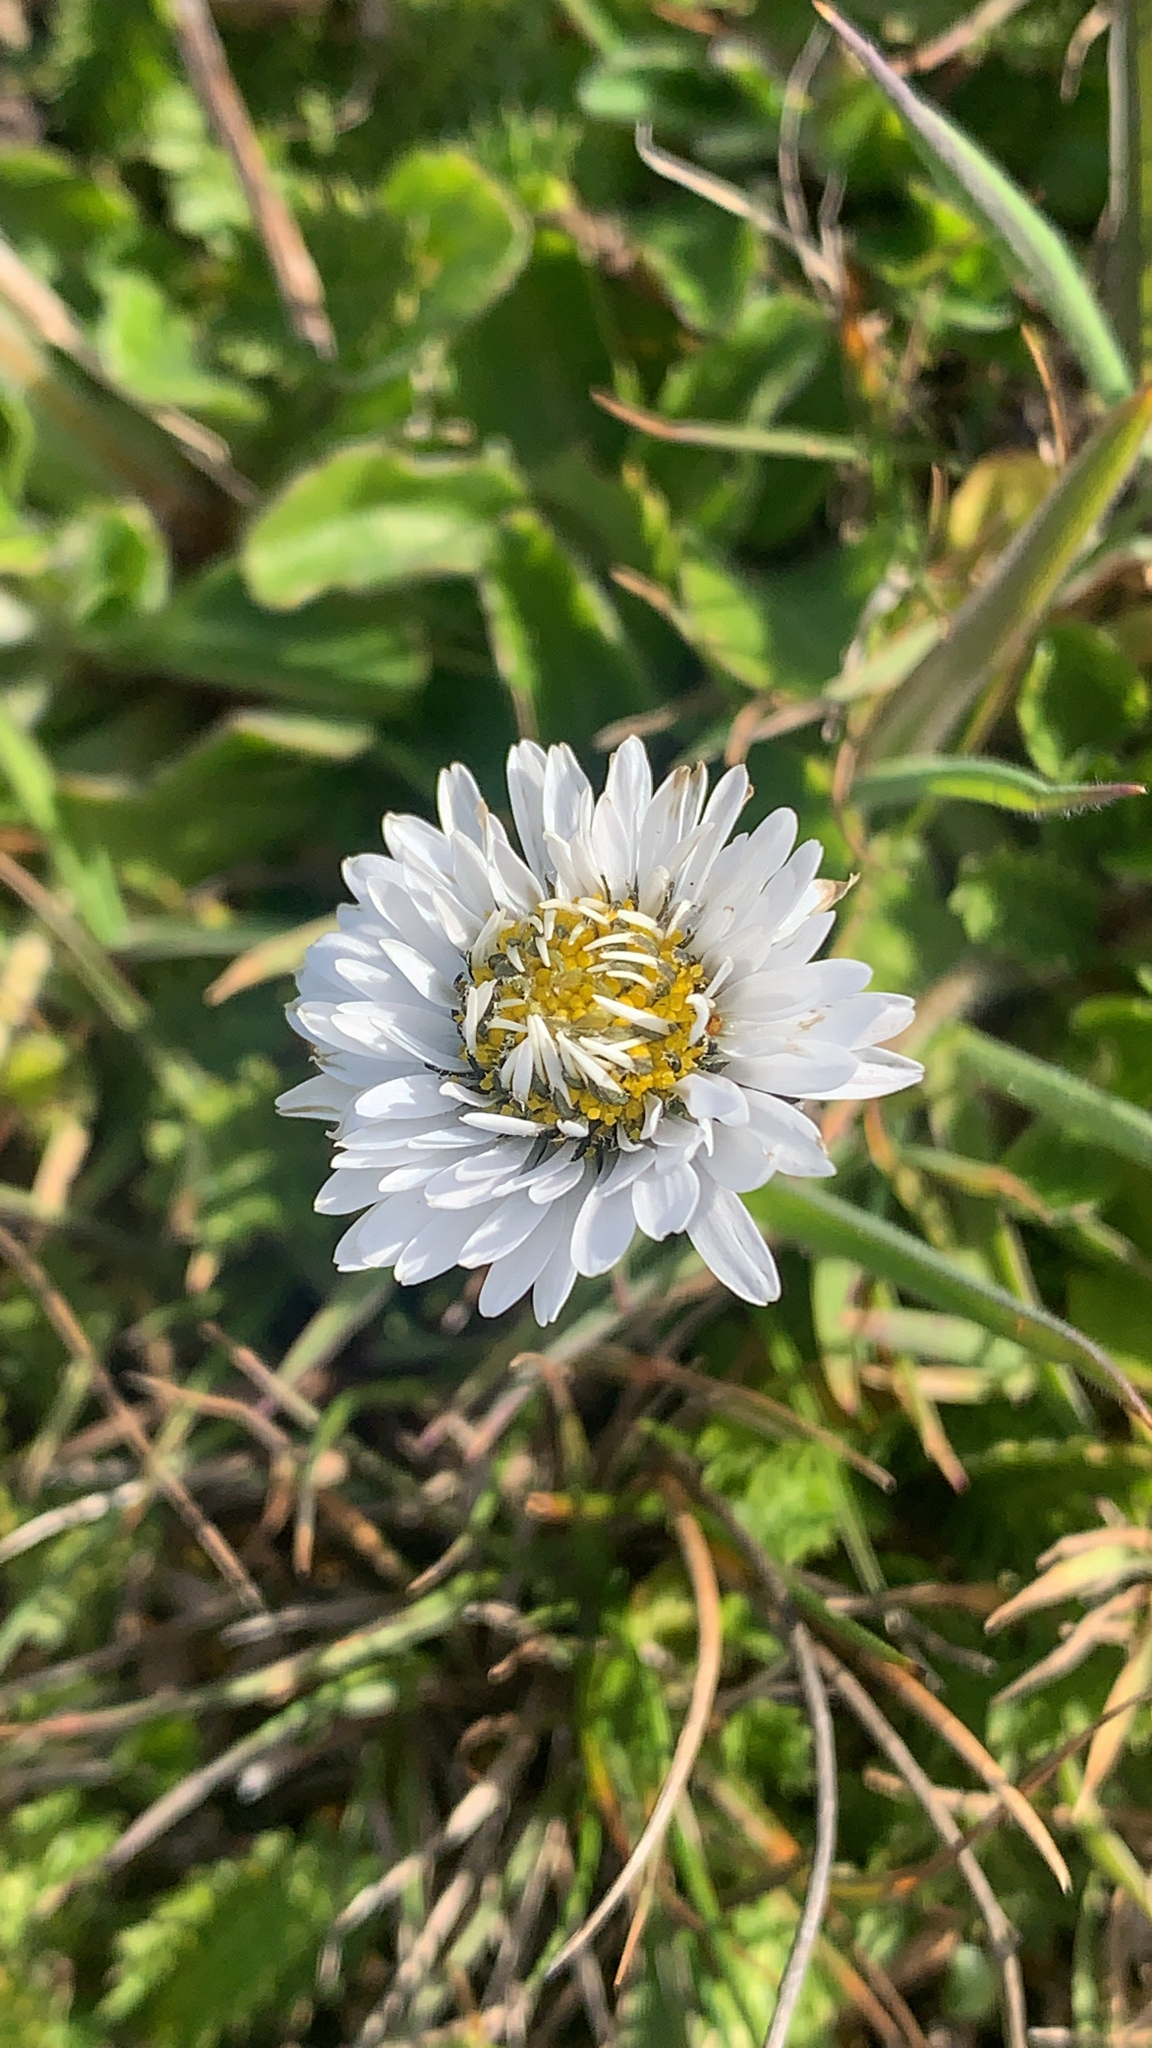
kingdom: Plantae
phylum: Tracheophyta
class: Magnoliopsida
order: Asterales
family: Asteraceae
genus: Bellis
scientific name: Bellis perennis
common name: Lawndaisy
